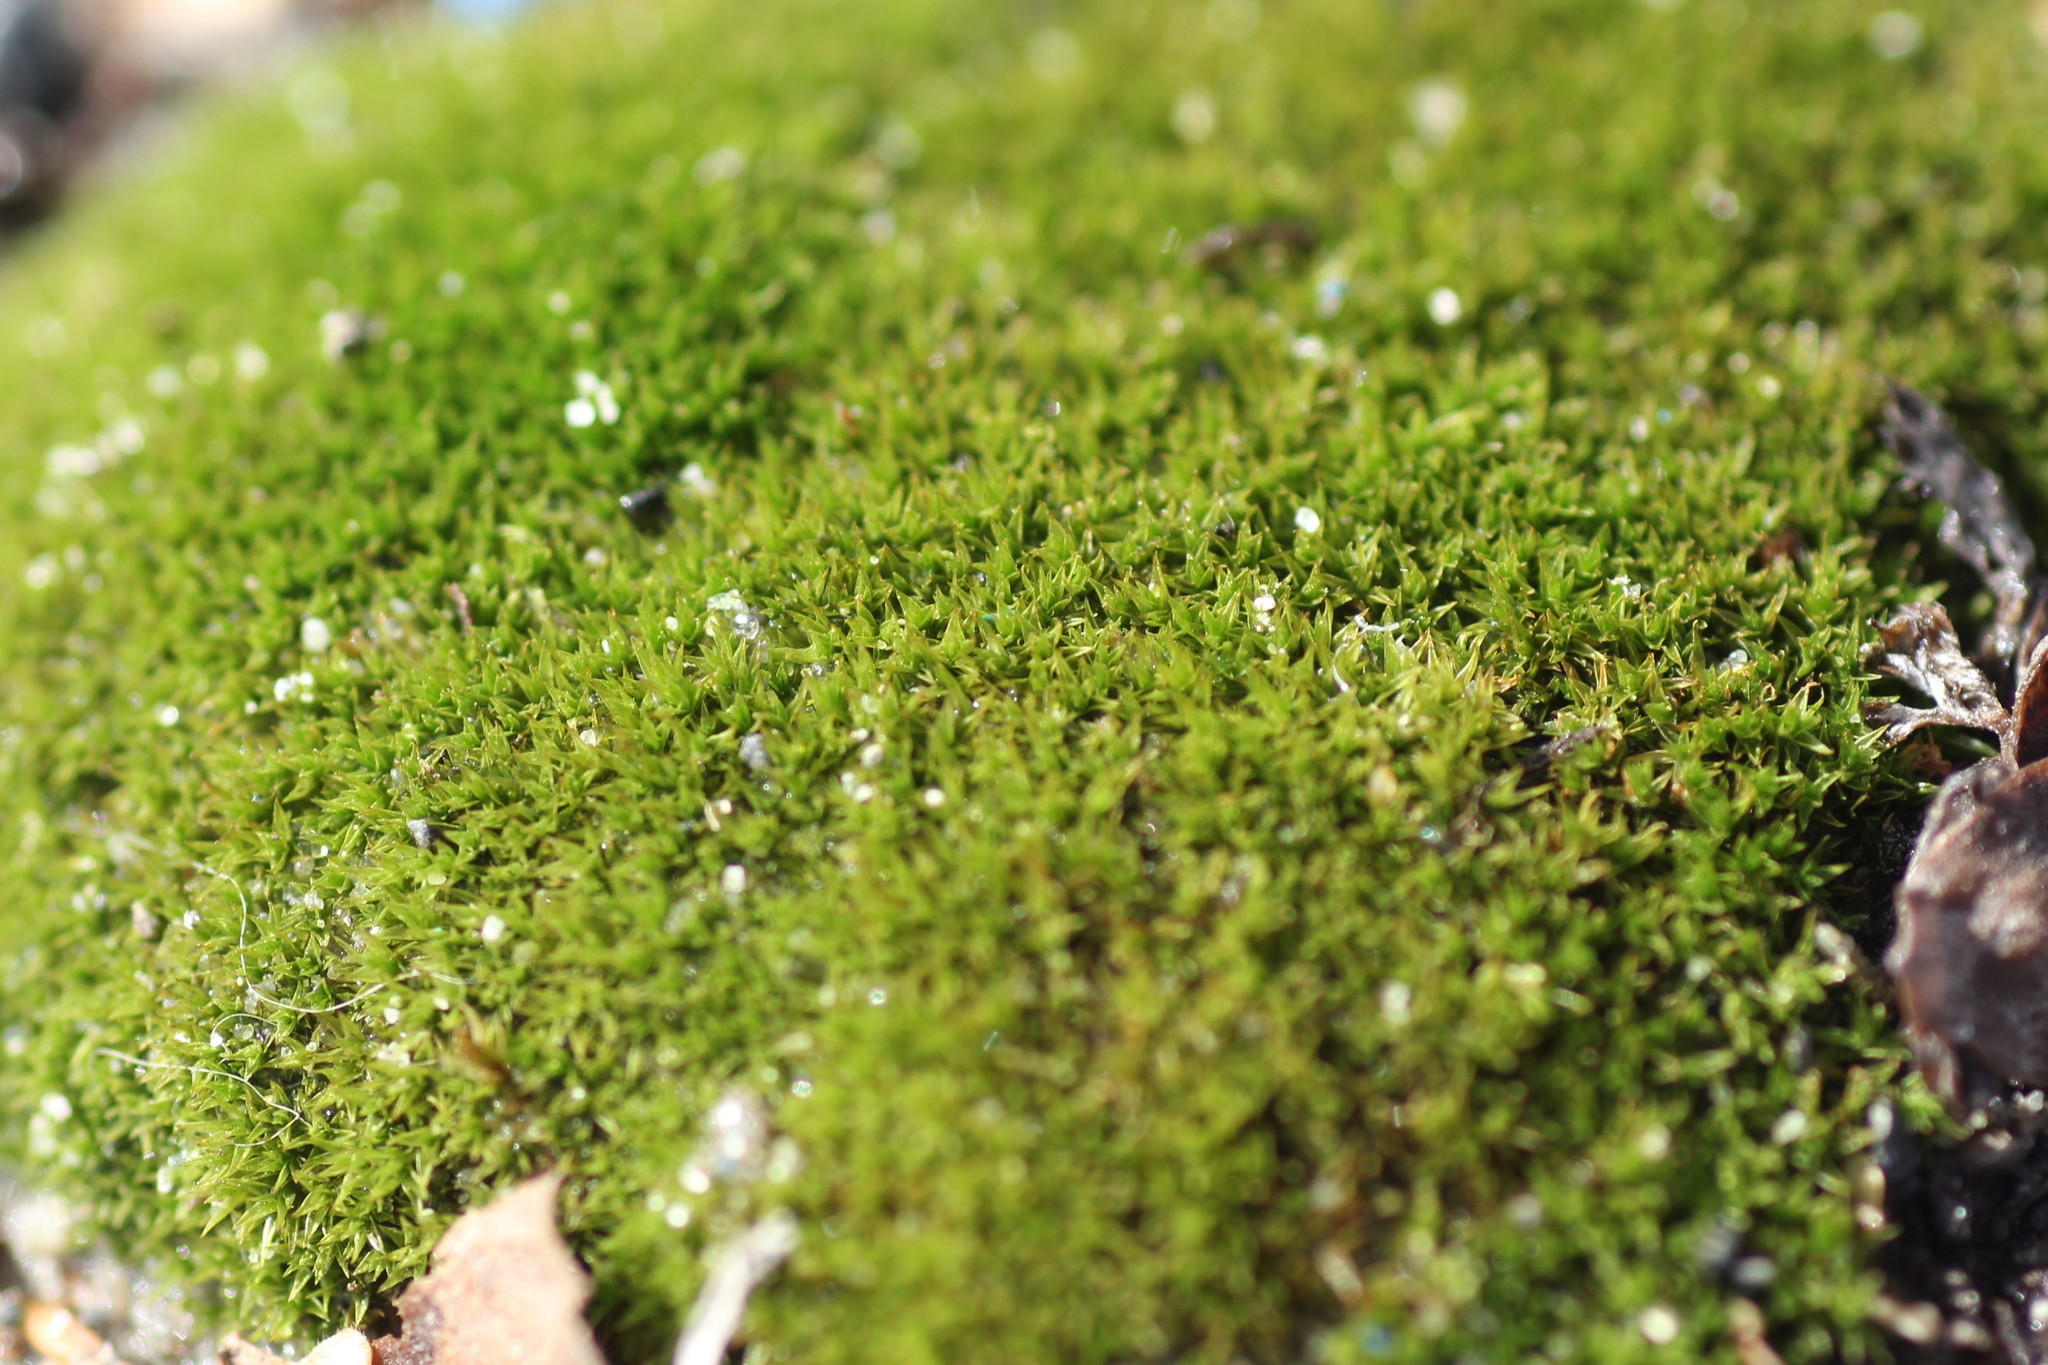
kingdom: Plantae
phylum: Bryophyta
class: Bryopsida
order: Dicranales
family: Ditrichaceae
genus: Ceratodon
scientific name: Ceratodon purpureus
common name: Redshank
